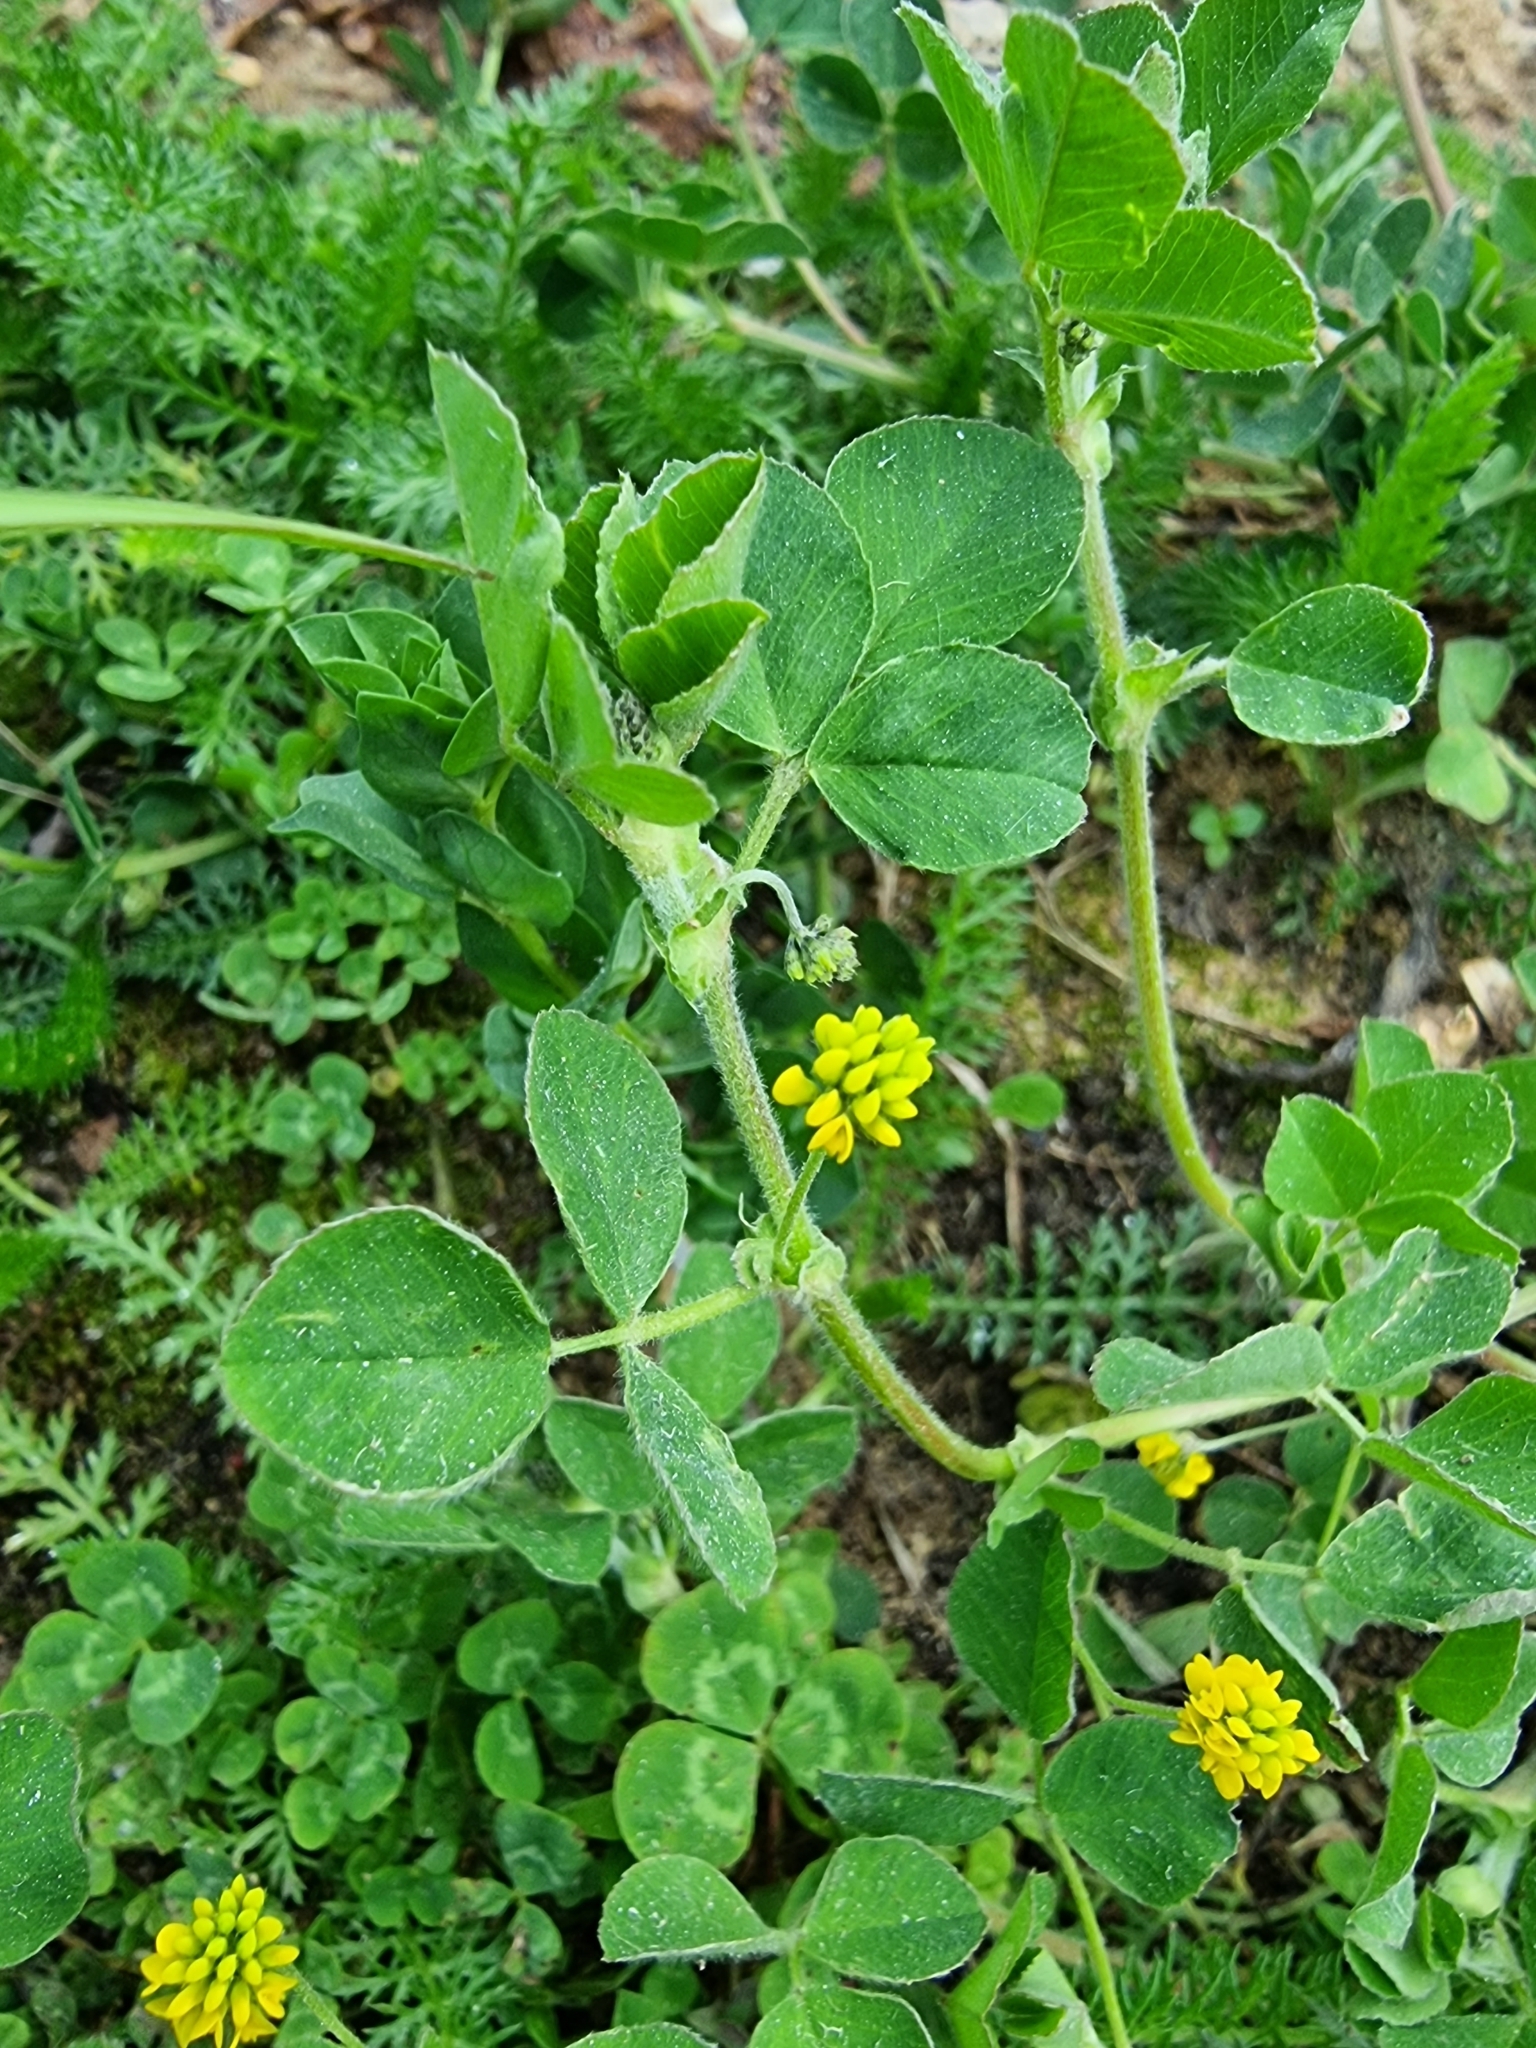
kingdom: Plantae
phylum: Tracheophyta
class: Magnoliopsida
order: Fabales
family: Fabaceae
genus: Medicago
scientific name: Medicago lupulina
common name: Black medick
